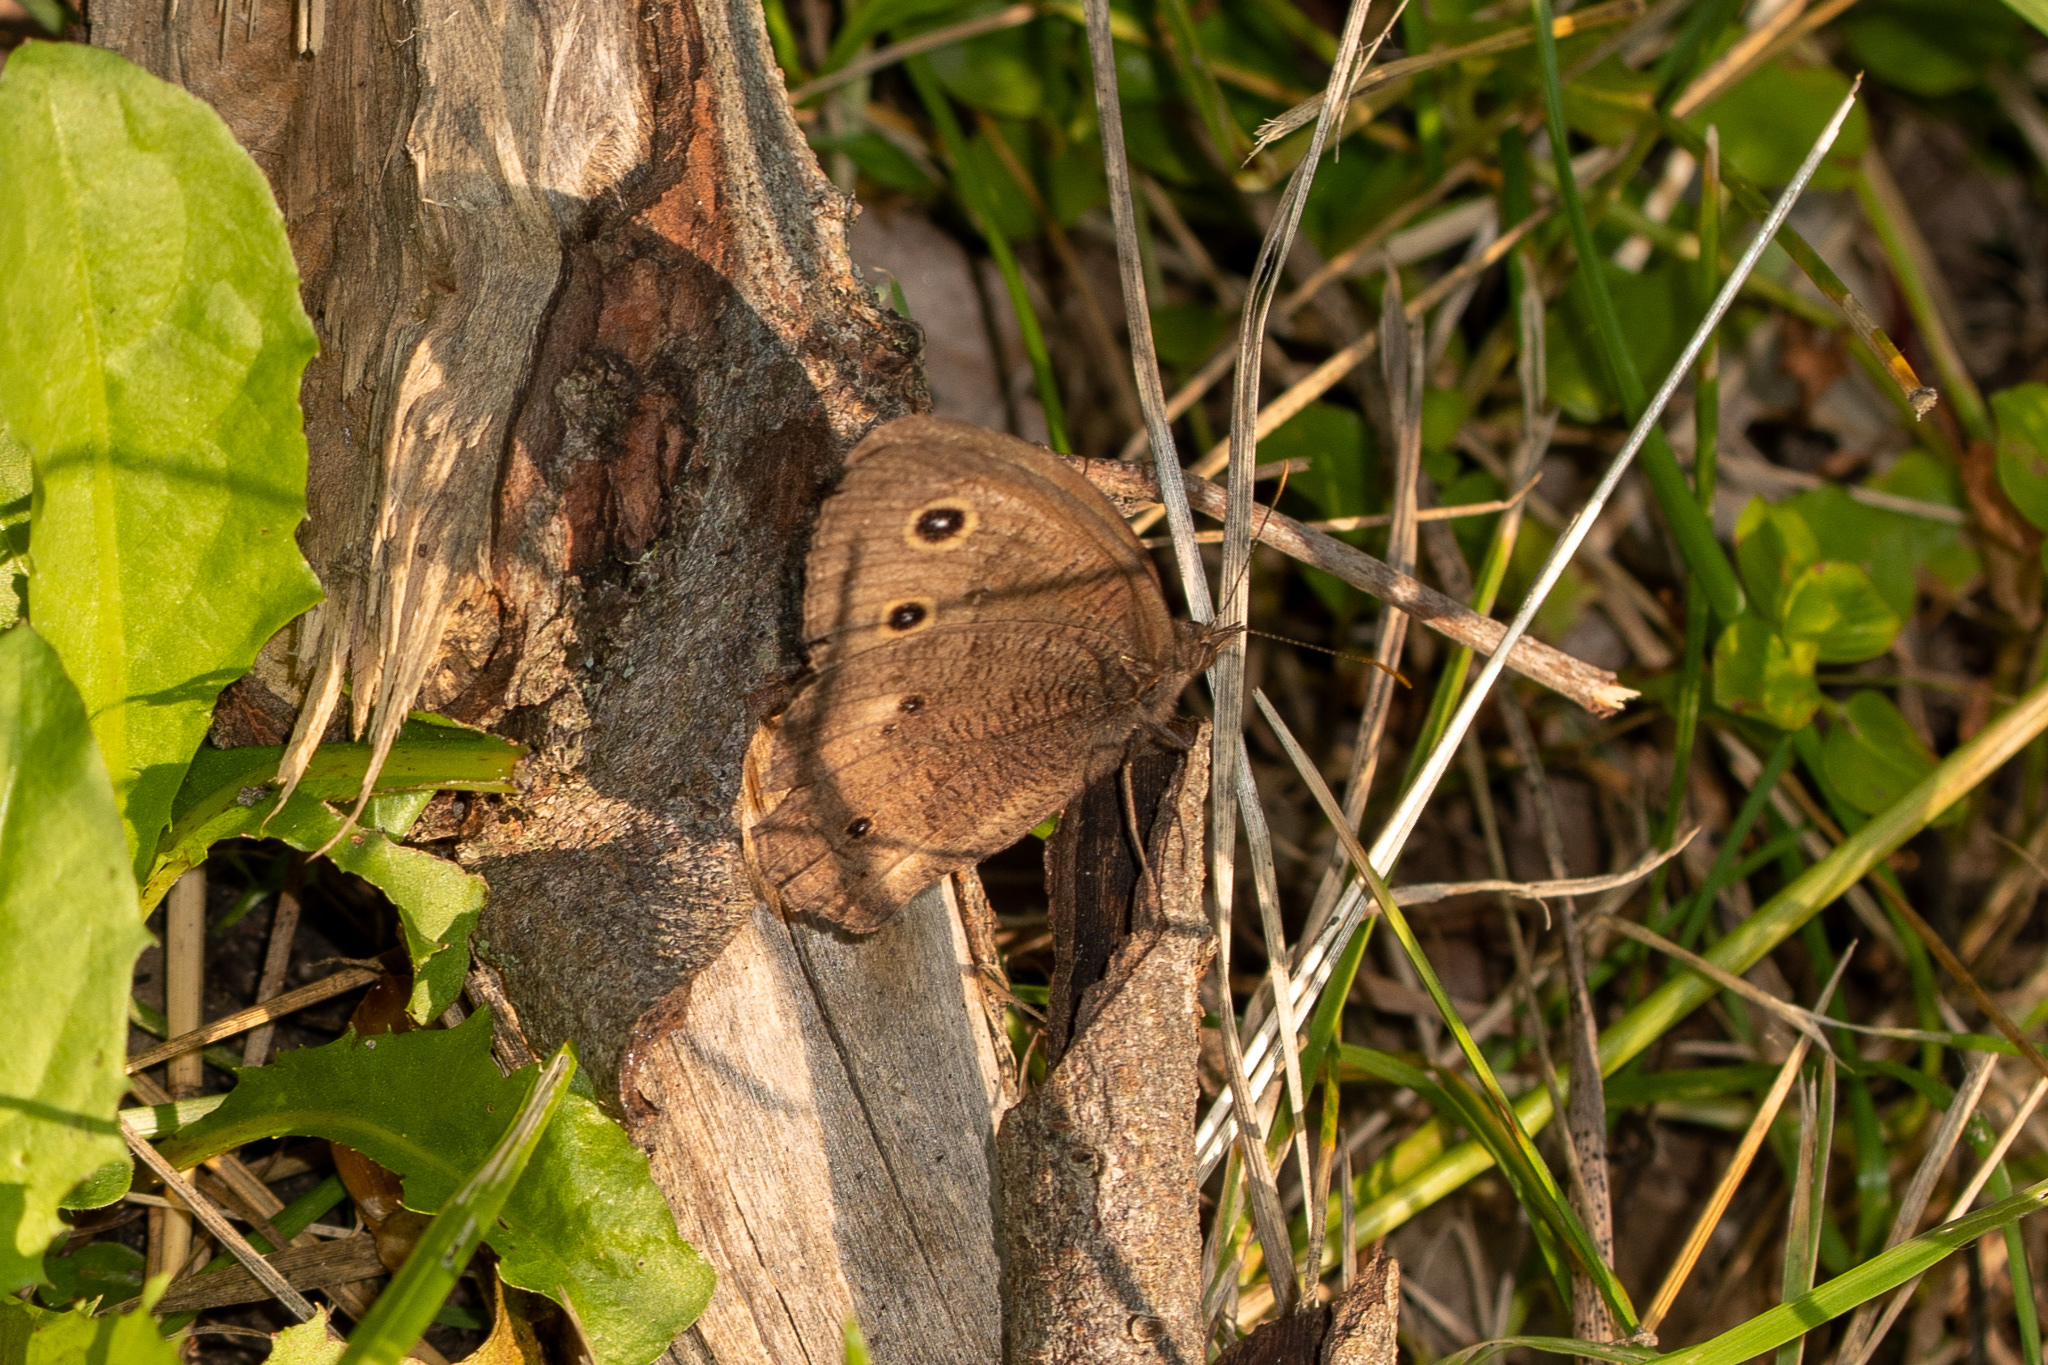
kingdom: Animalia
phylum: Arthropoda
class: Insecta
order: Lepidoptera
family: Nymphalidae
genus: Cercyonis
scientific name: Cercyonis pegala
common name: Common wood-nymph
